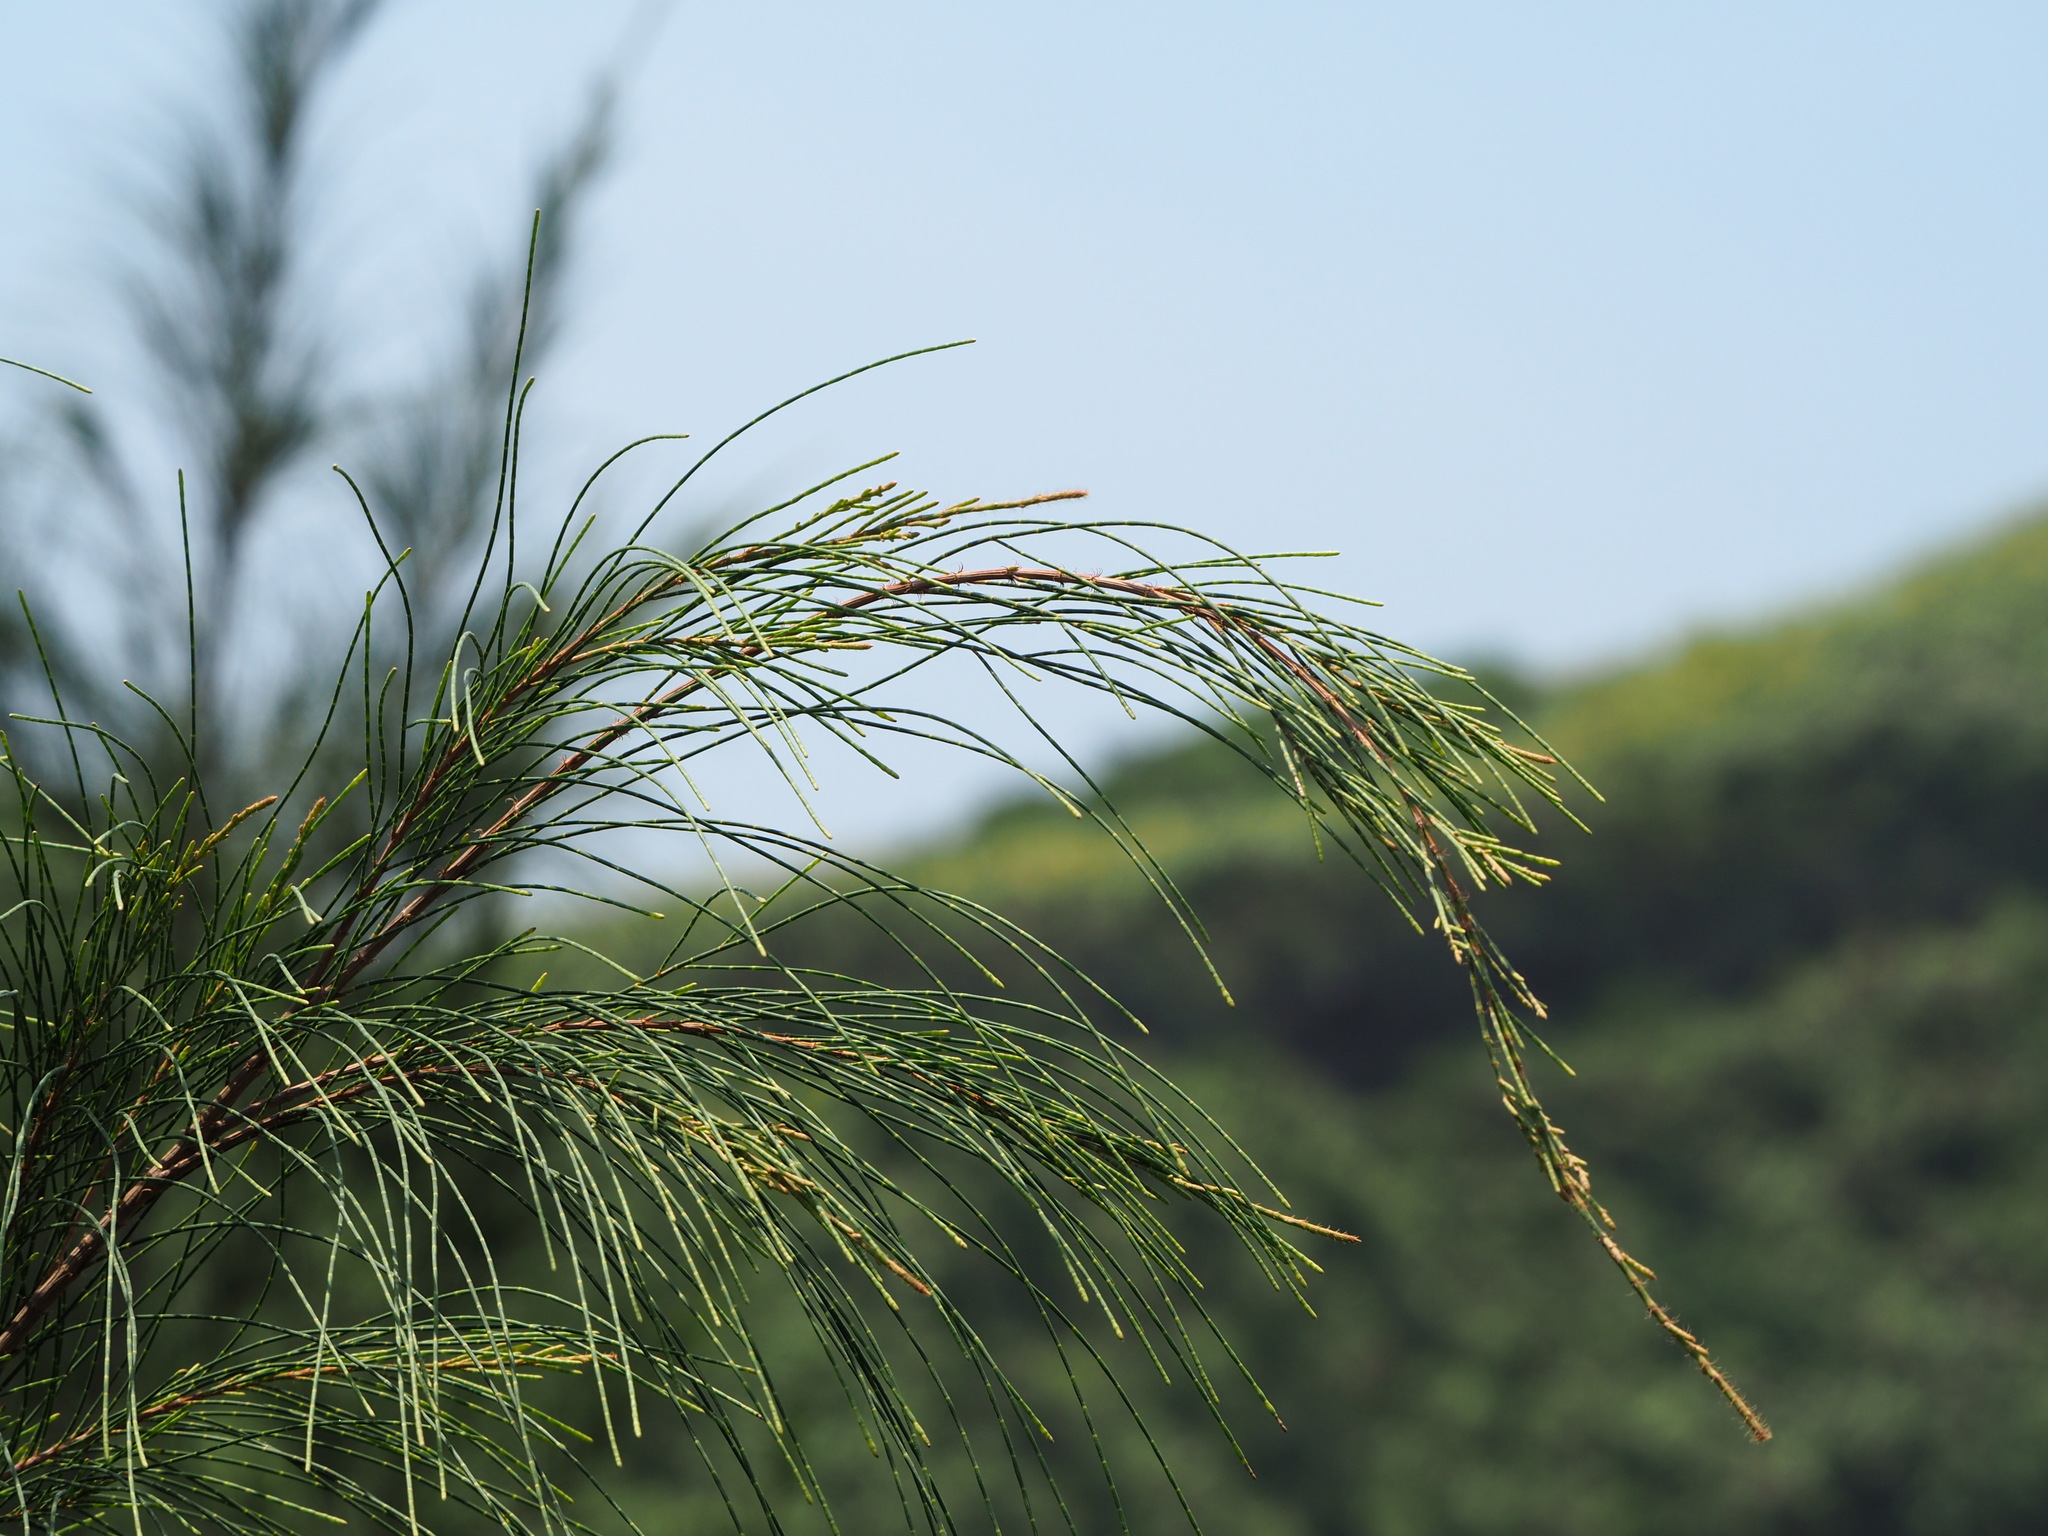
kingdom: Plantae
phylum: Tracheophyta
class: Magnoliopsida
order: Fagales
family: Casuarinaceae
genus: Casuarina
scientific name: Casuarina equisetifolia
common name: Beach sheoak
